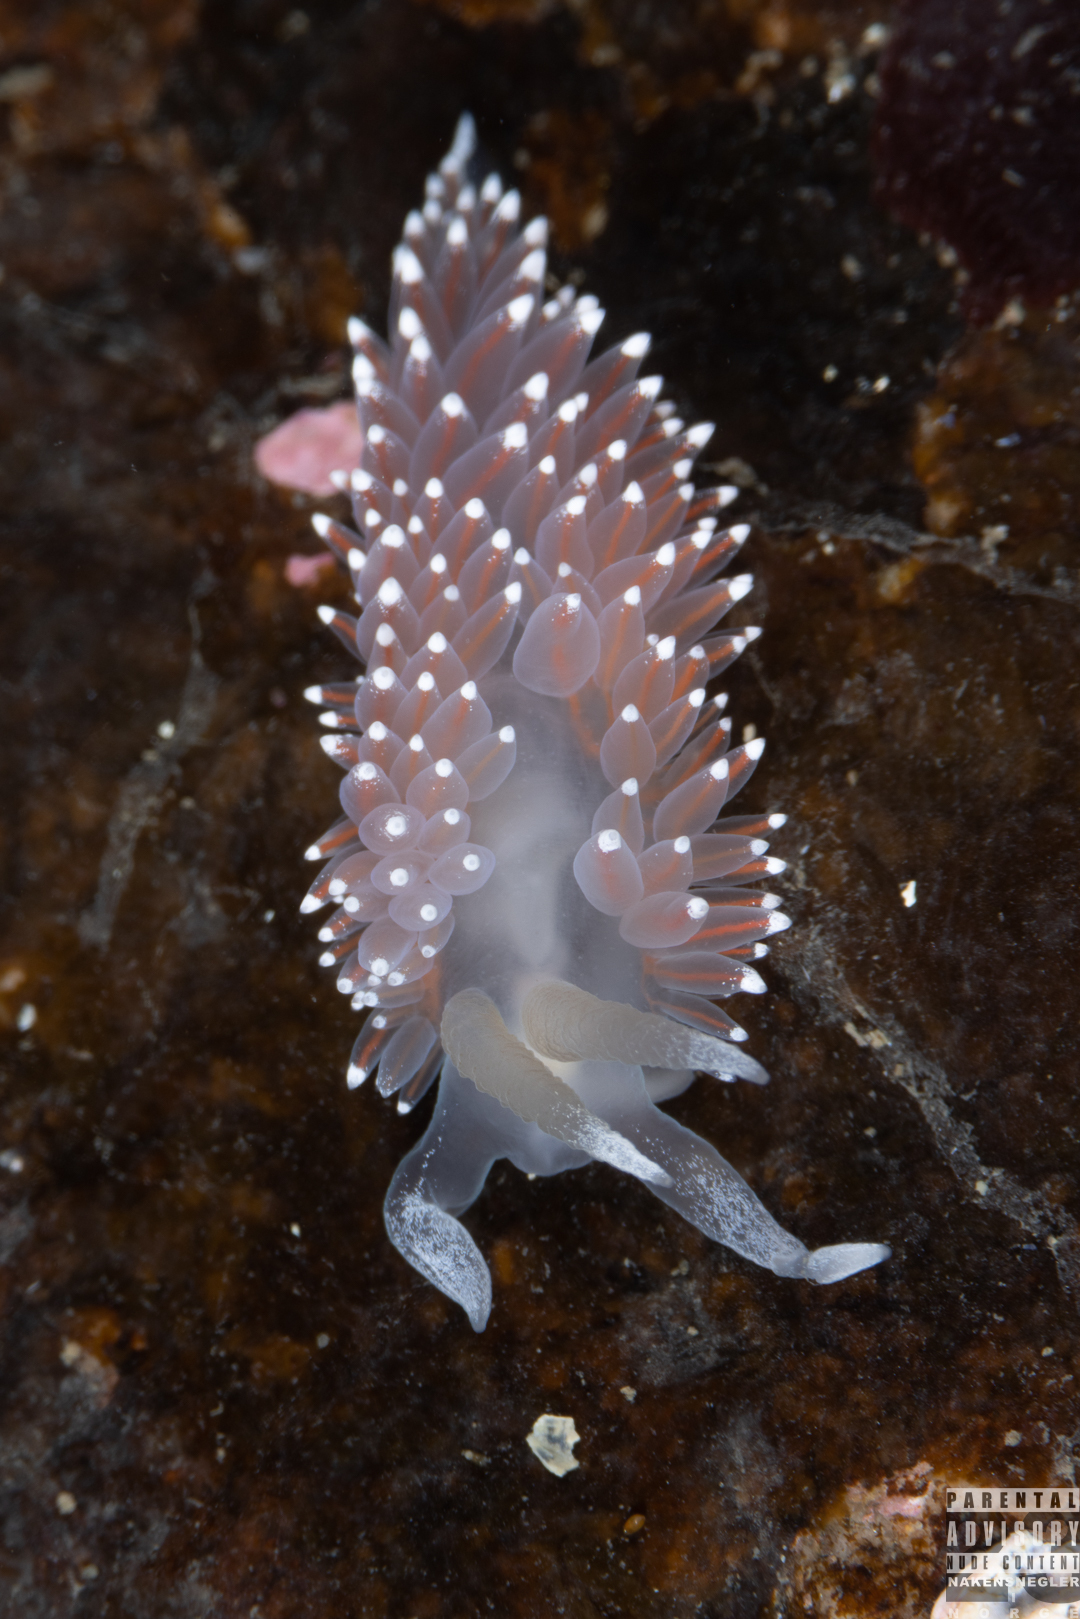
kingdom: Animalia
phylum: Mollusca
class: Gastropoda
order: Nudibranchia
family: Coryphellidae
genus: Coryphella
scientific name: Coryphella nobilis
